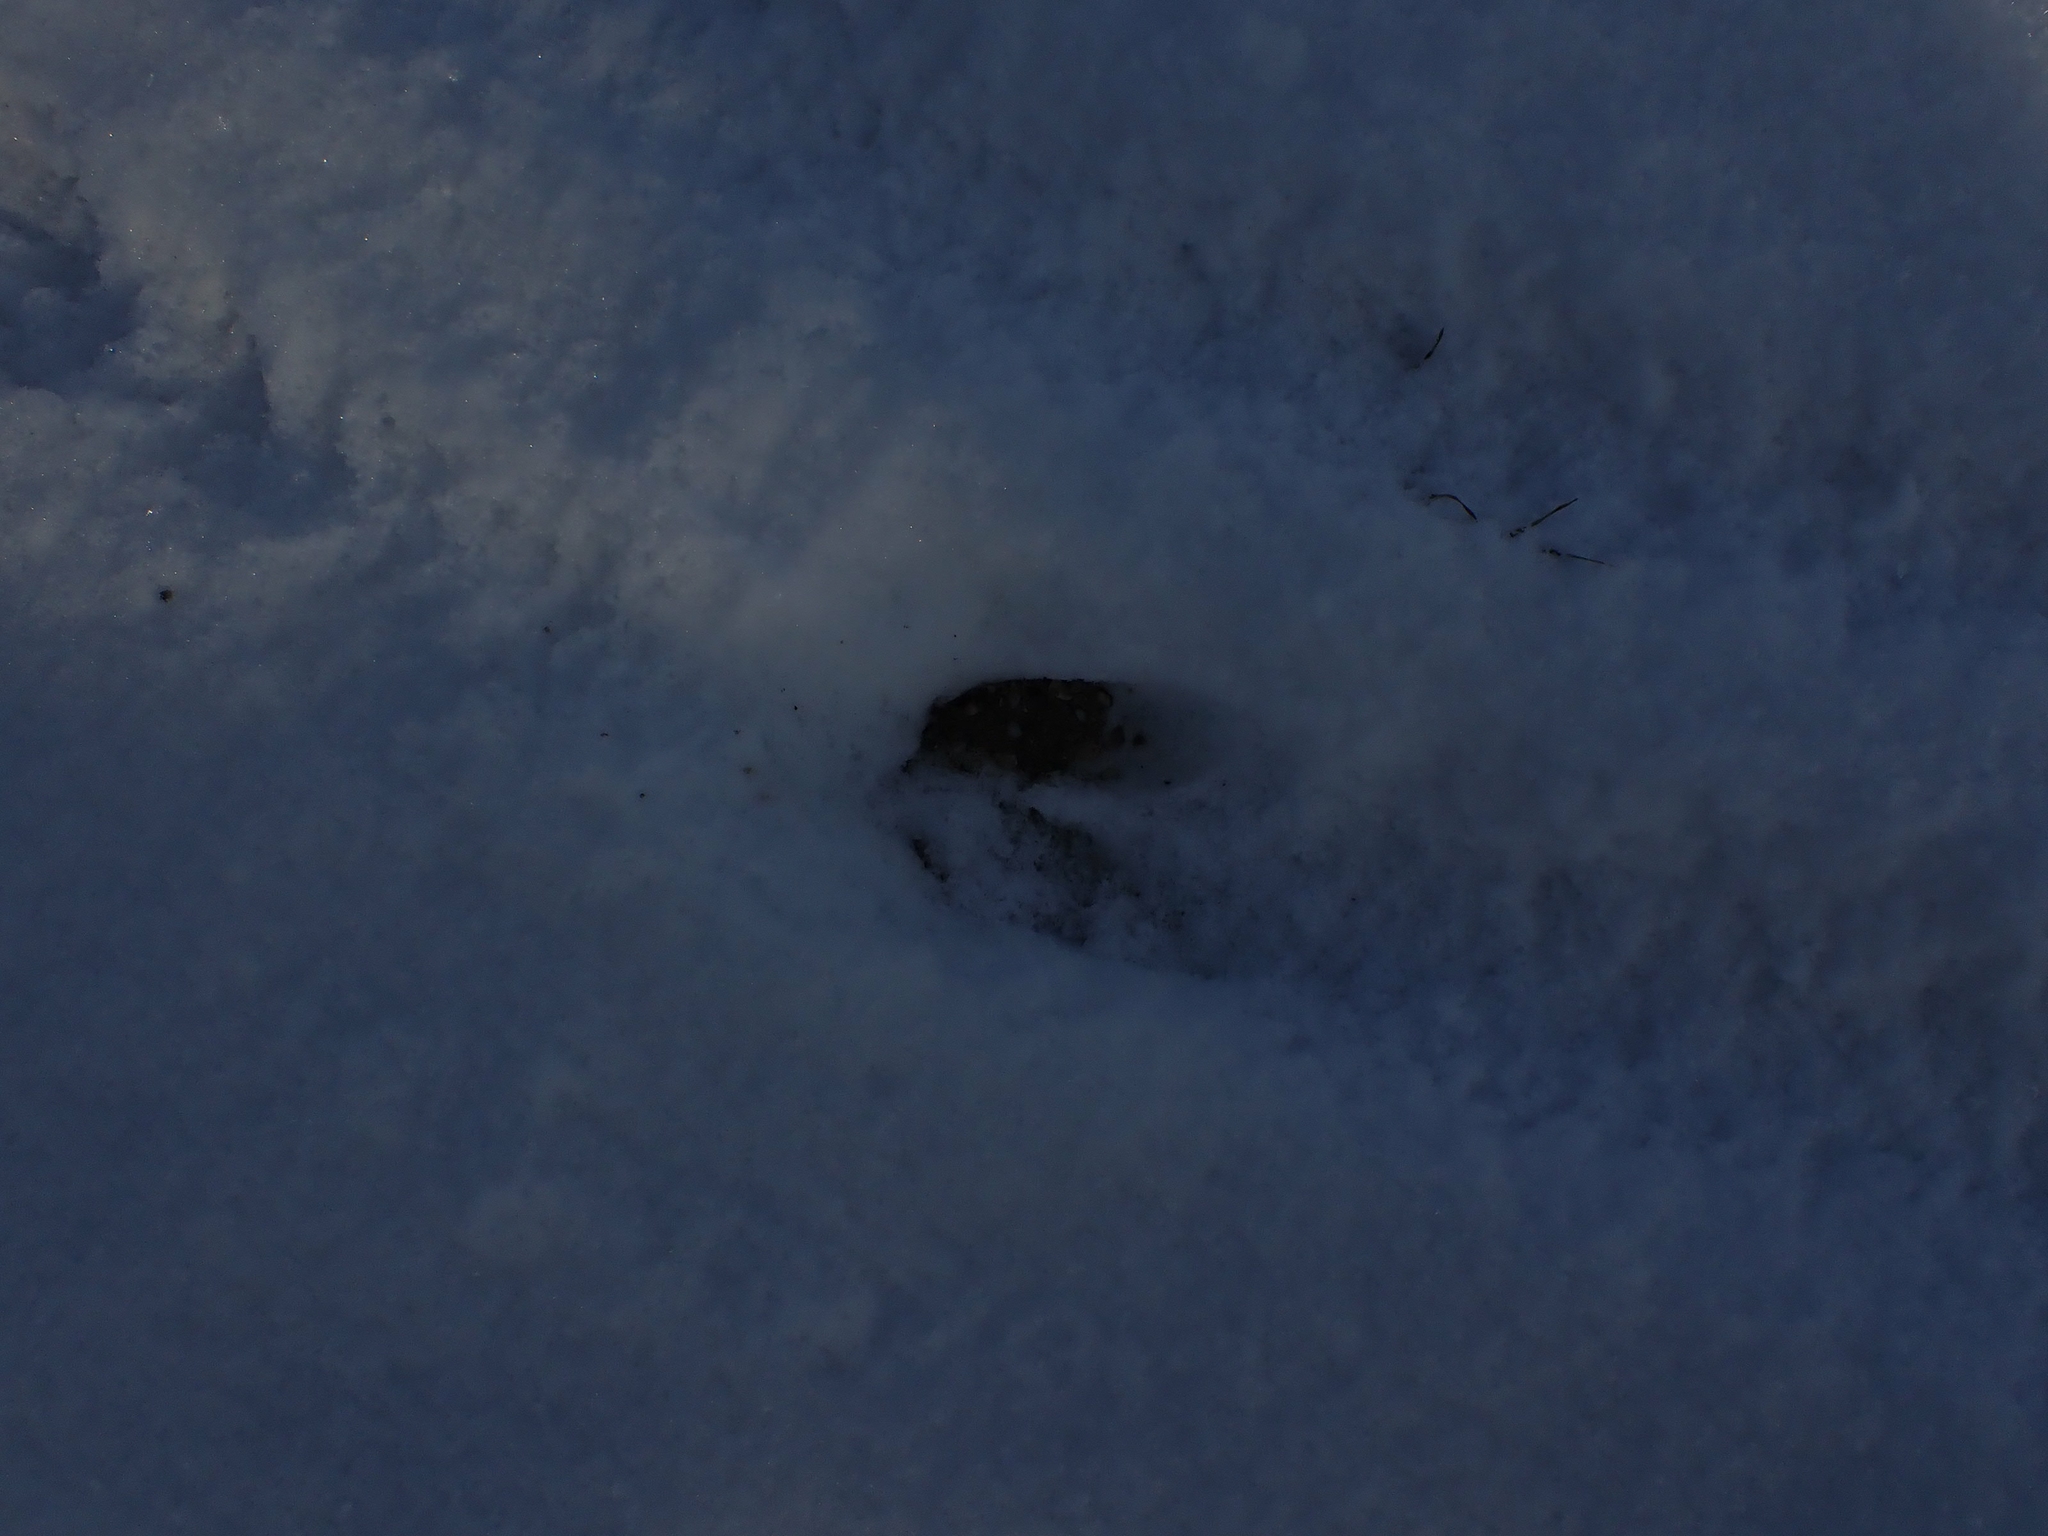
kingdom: Animalia
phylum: Chordata
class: Mammalia
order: Artiodactyla
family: Cervidae
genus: Odocoileus
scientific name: Odocoileus virginianus
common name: White-tailed deer
